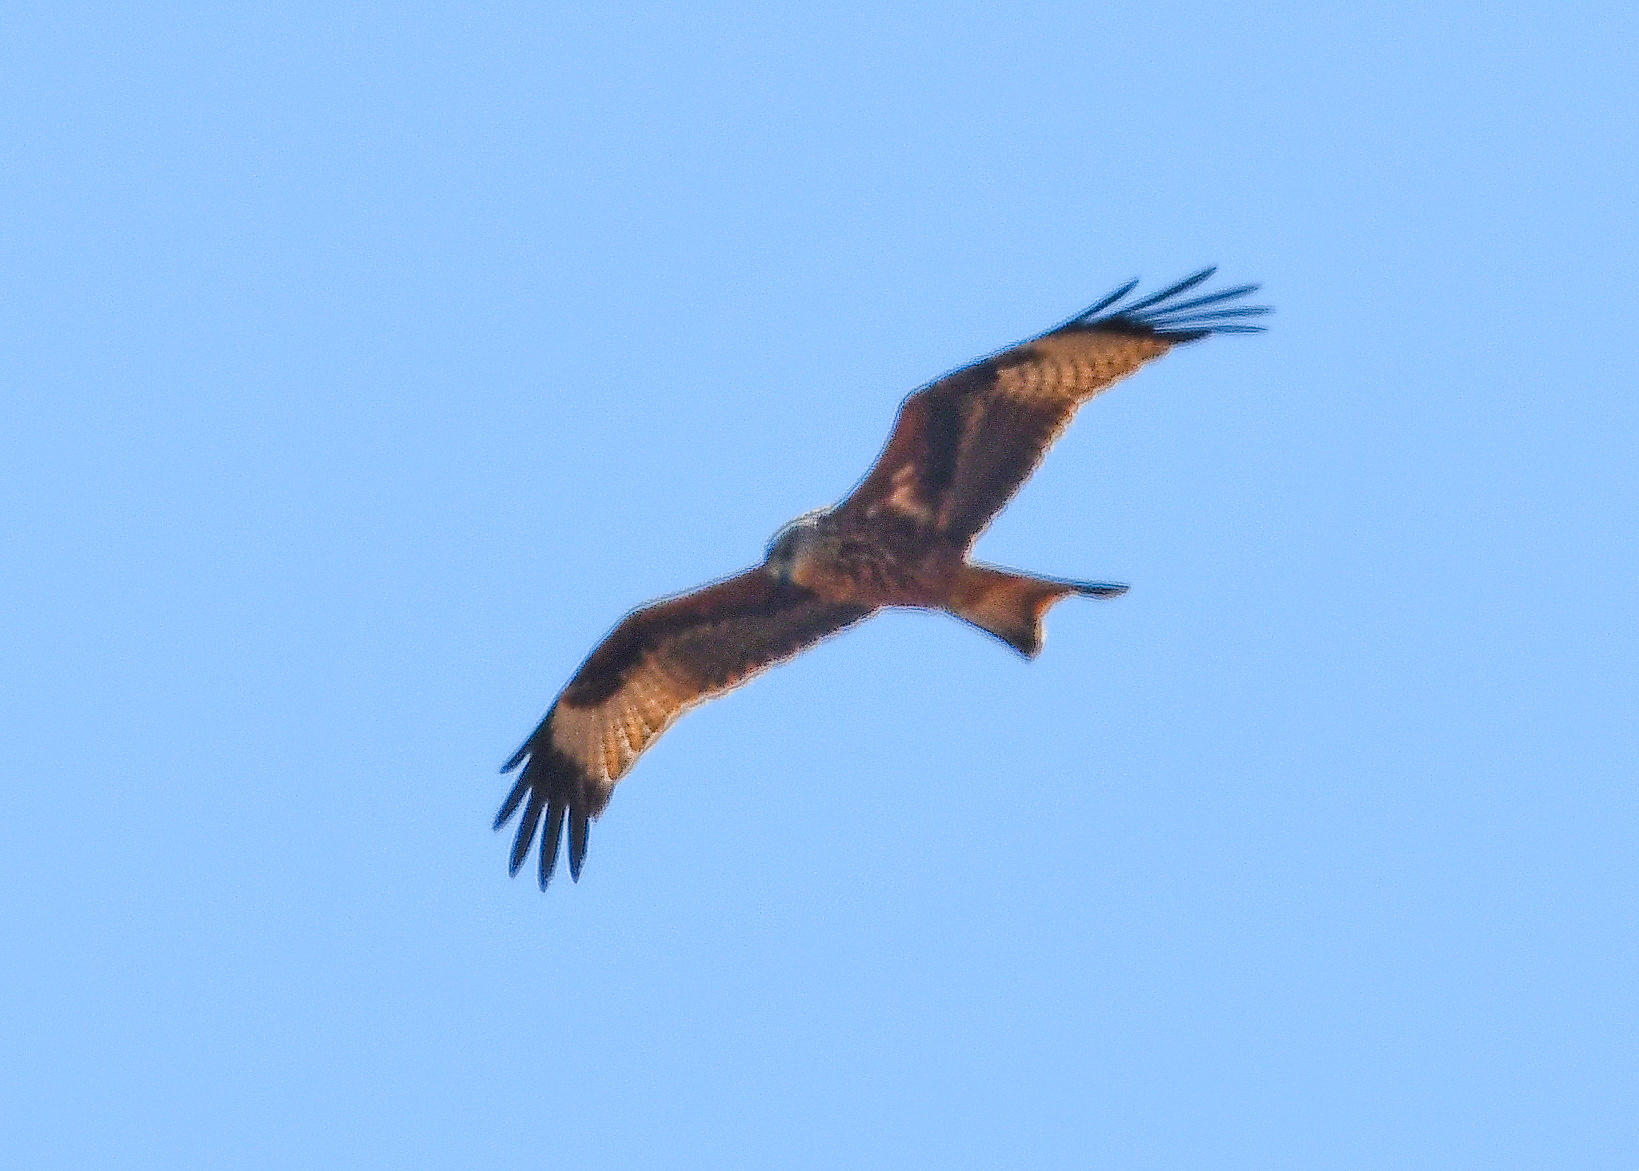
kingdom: Animalia
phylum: Chordata
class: Aves
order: Accipitriformes
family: Accipitridae
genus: Milvus
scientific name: Milvus milvus
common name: Red kite
